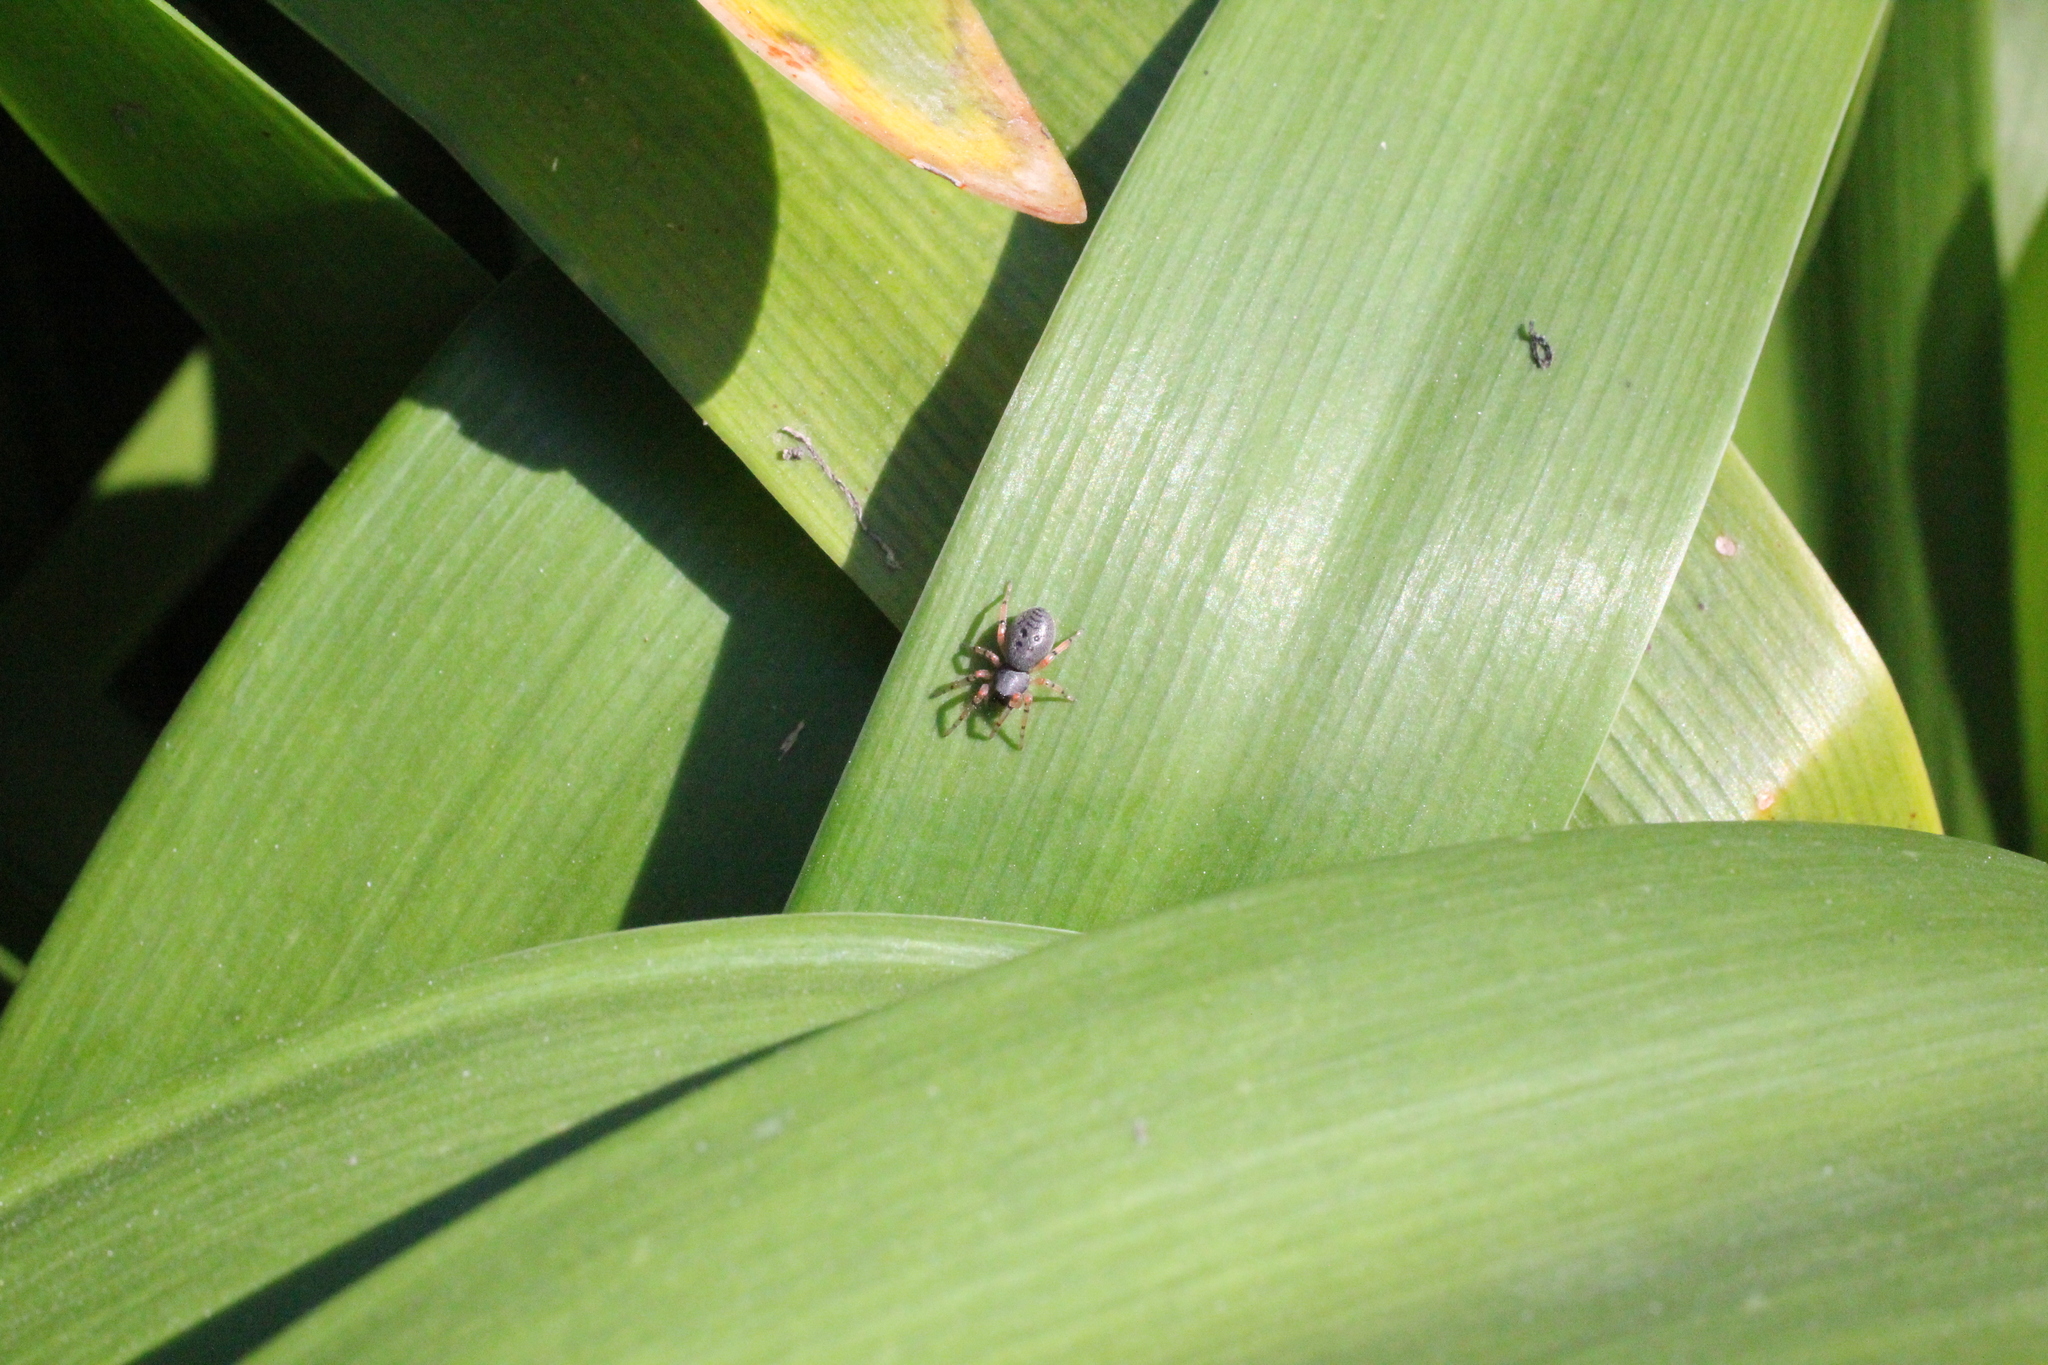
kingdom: Animalia
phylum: Arthropoda
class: Arachnida
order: Araneae
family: Trachelidae
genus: Trachelopachys
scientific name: Trachelopachys
